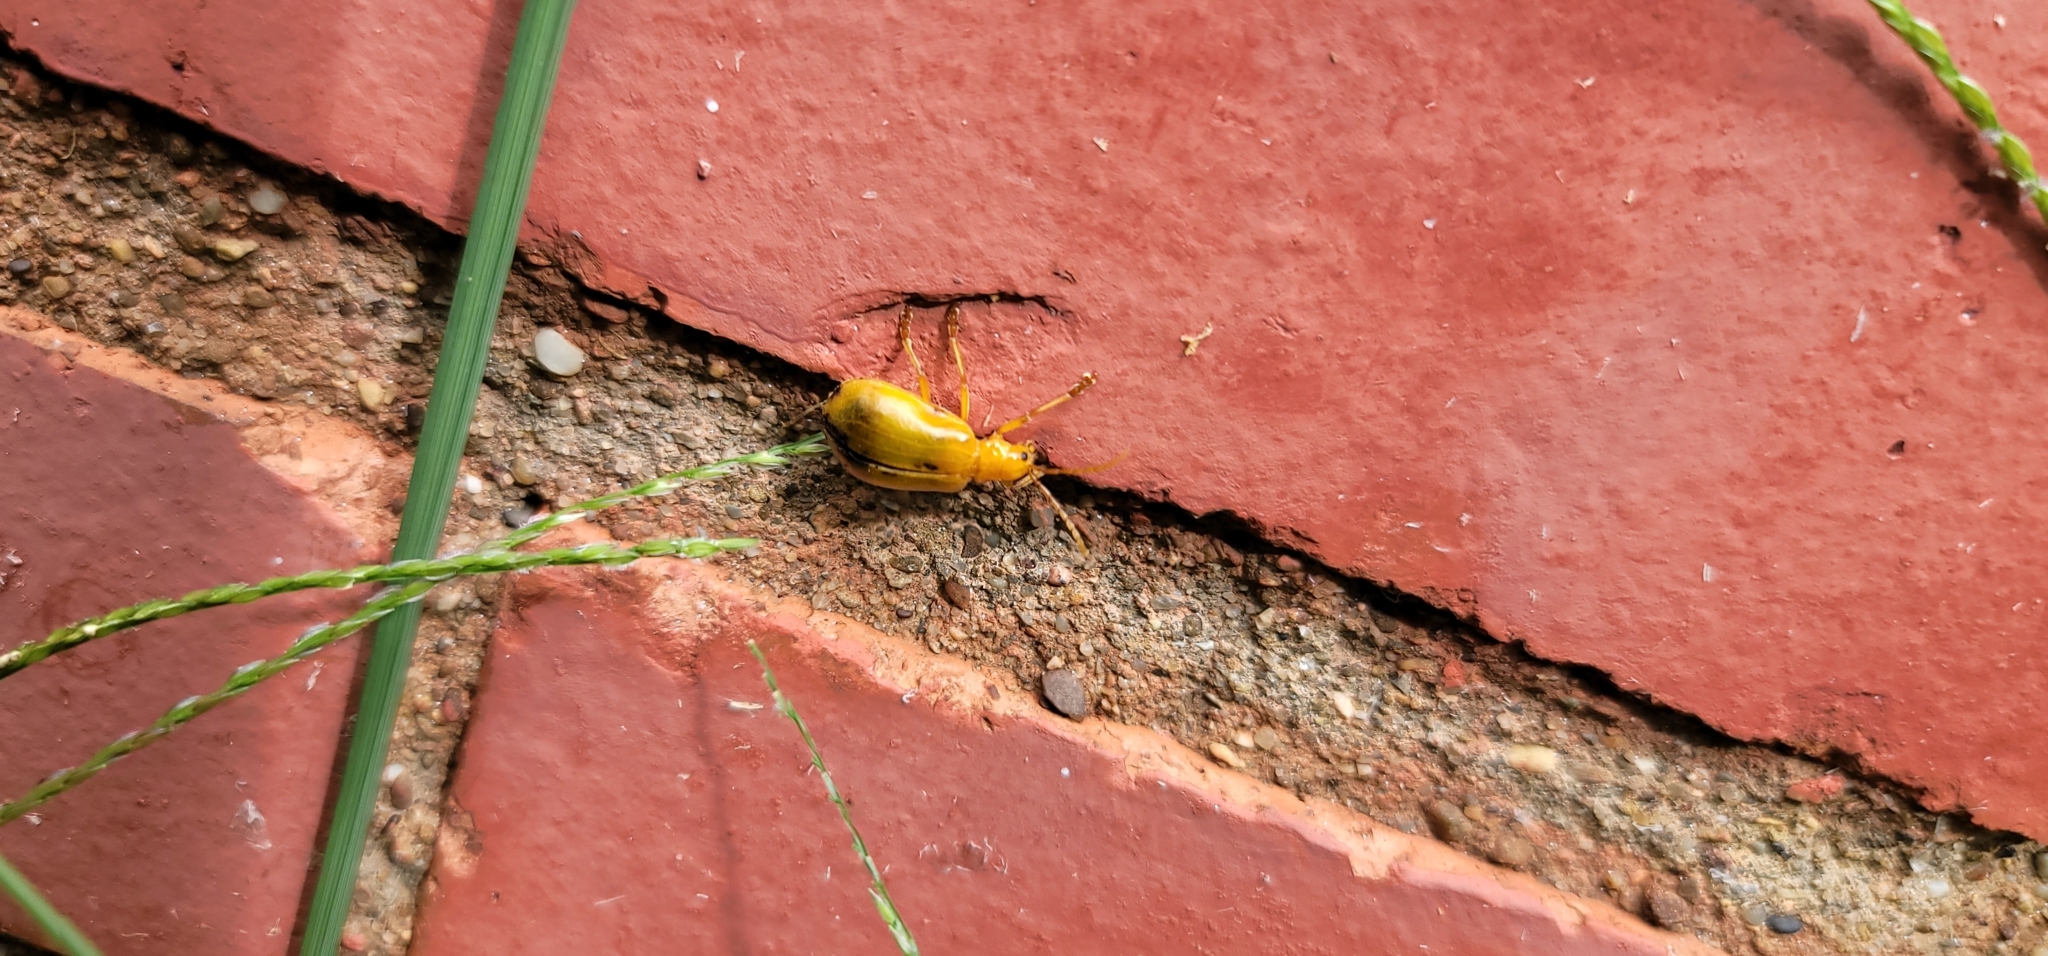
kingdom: Animalia
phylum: Arthropoda
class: Insecta
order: Coleoptera
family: Chrysomelidae
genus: Monocesta
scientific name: Monocesta coryli
